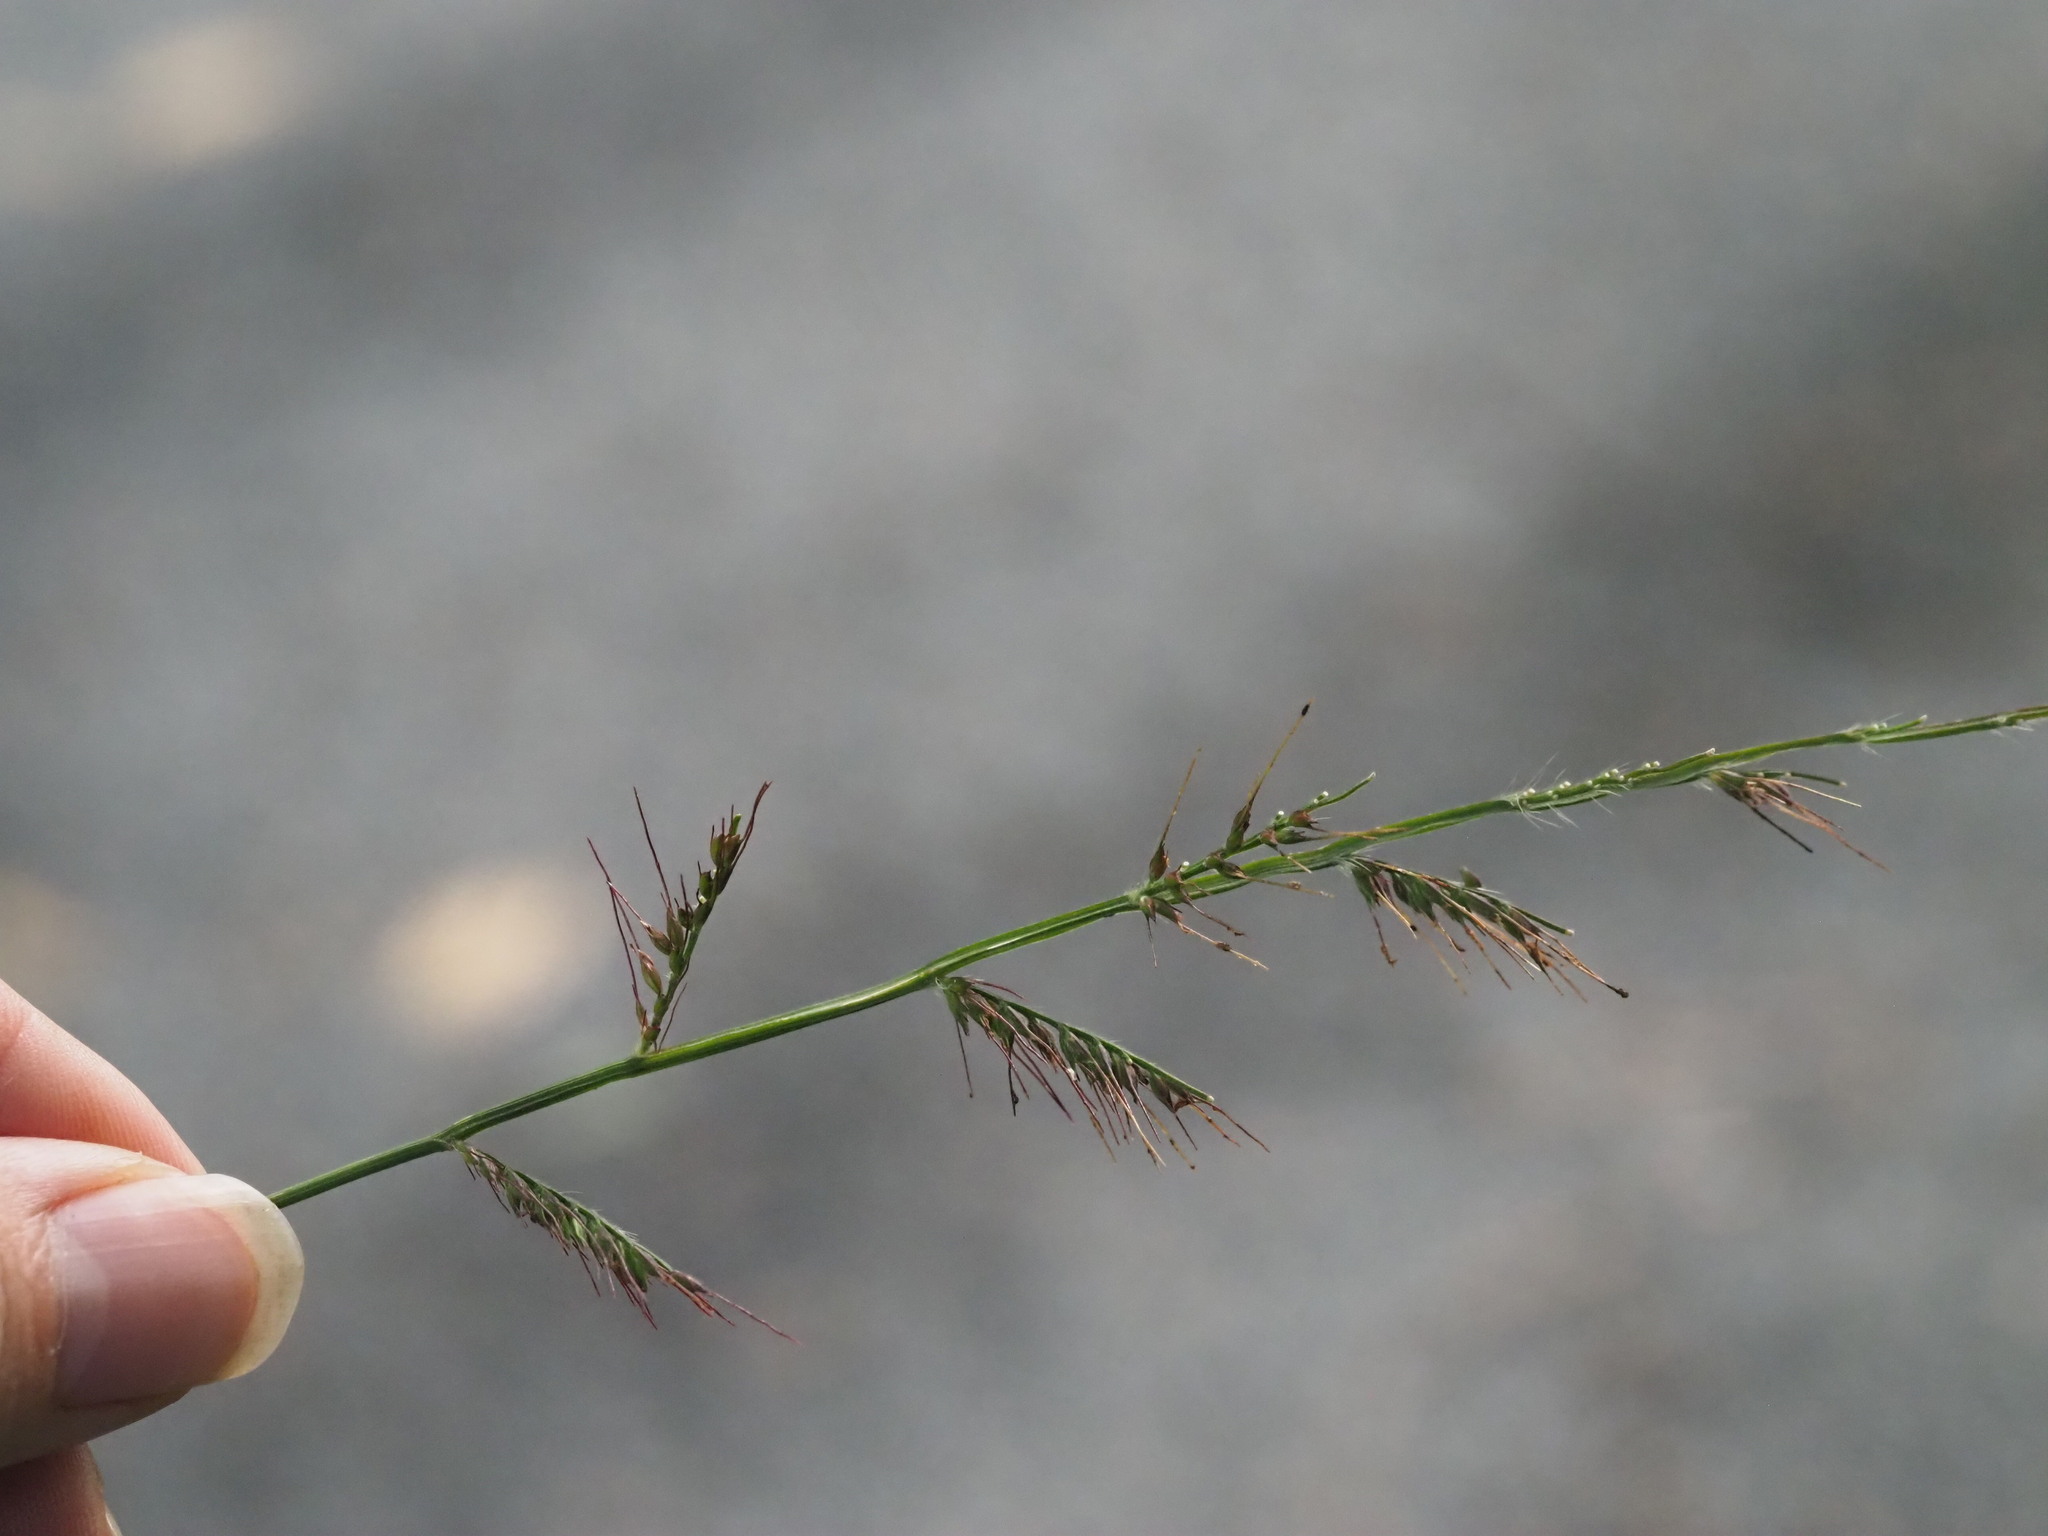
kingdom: Plantae
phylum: Tracheophyta
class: Liliopsida
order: Poales
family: Poaceae
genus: Oplismenus
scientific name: Oplismenus hirtellus
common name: Basketgrass
